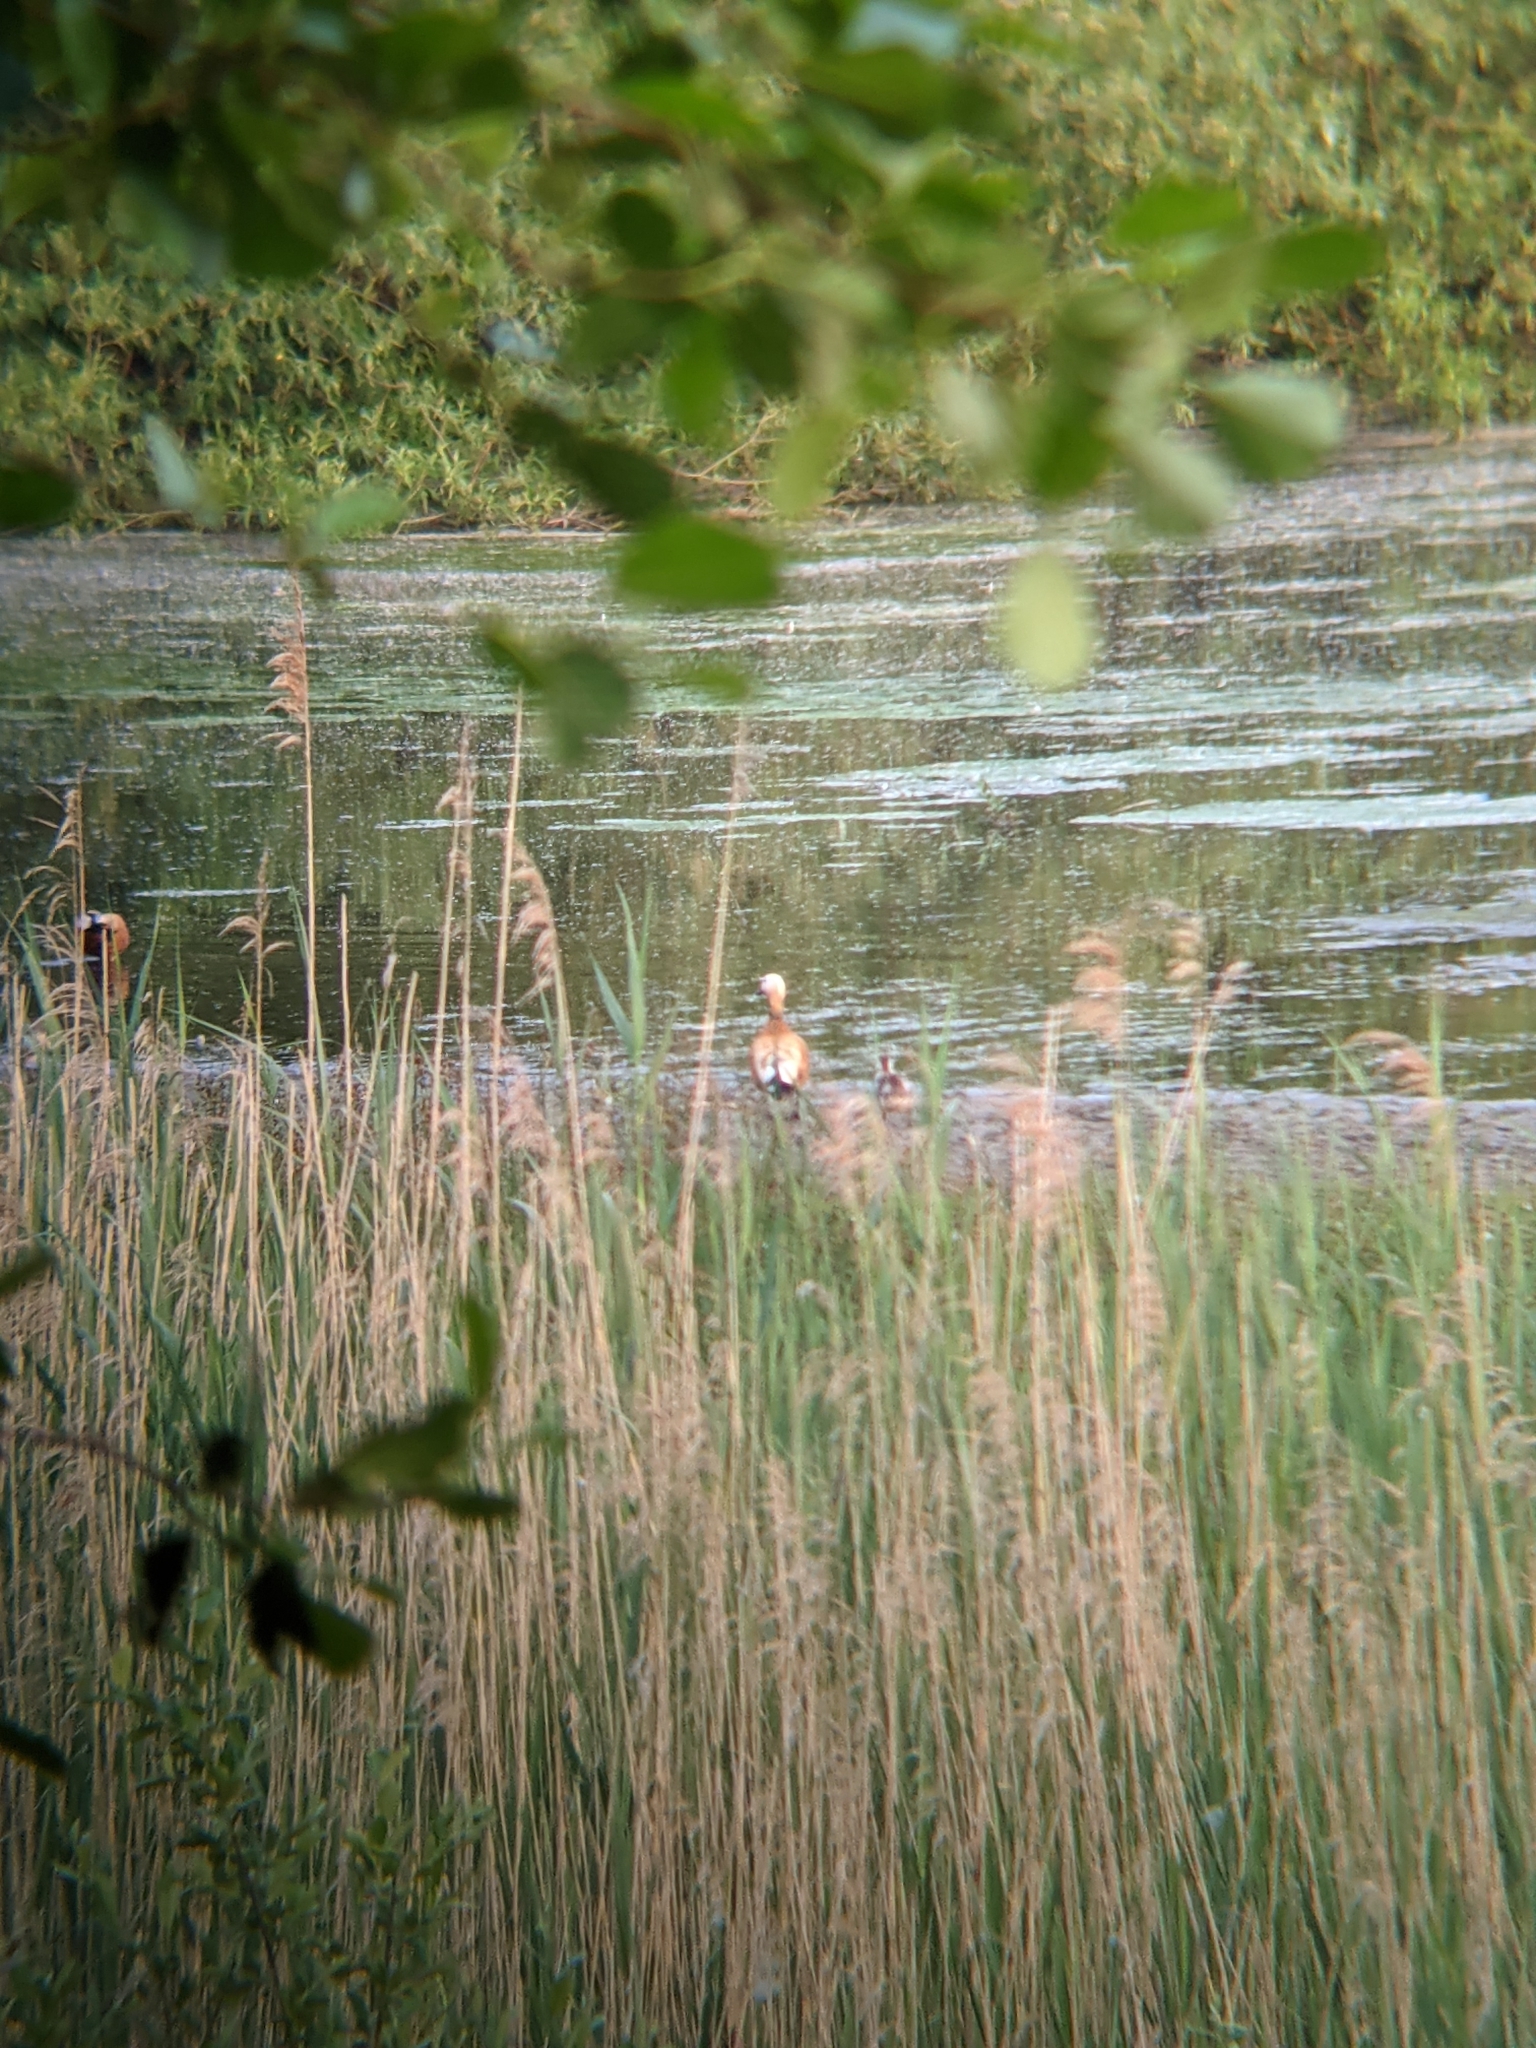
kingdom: Animalia
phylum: Chordata
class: Aves
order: Anseriformes
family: Anatidae
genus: Tadorna
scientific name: Tadorna ferruginea
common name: Ruddy shelduck
